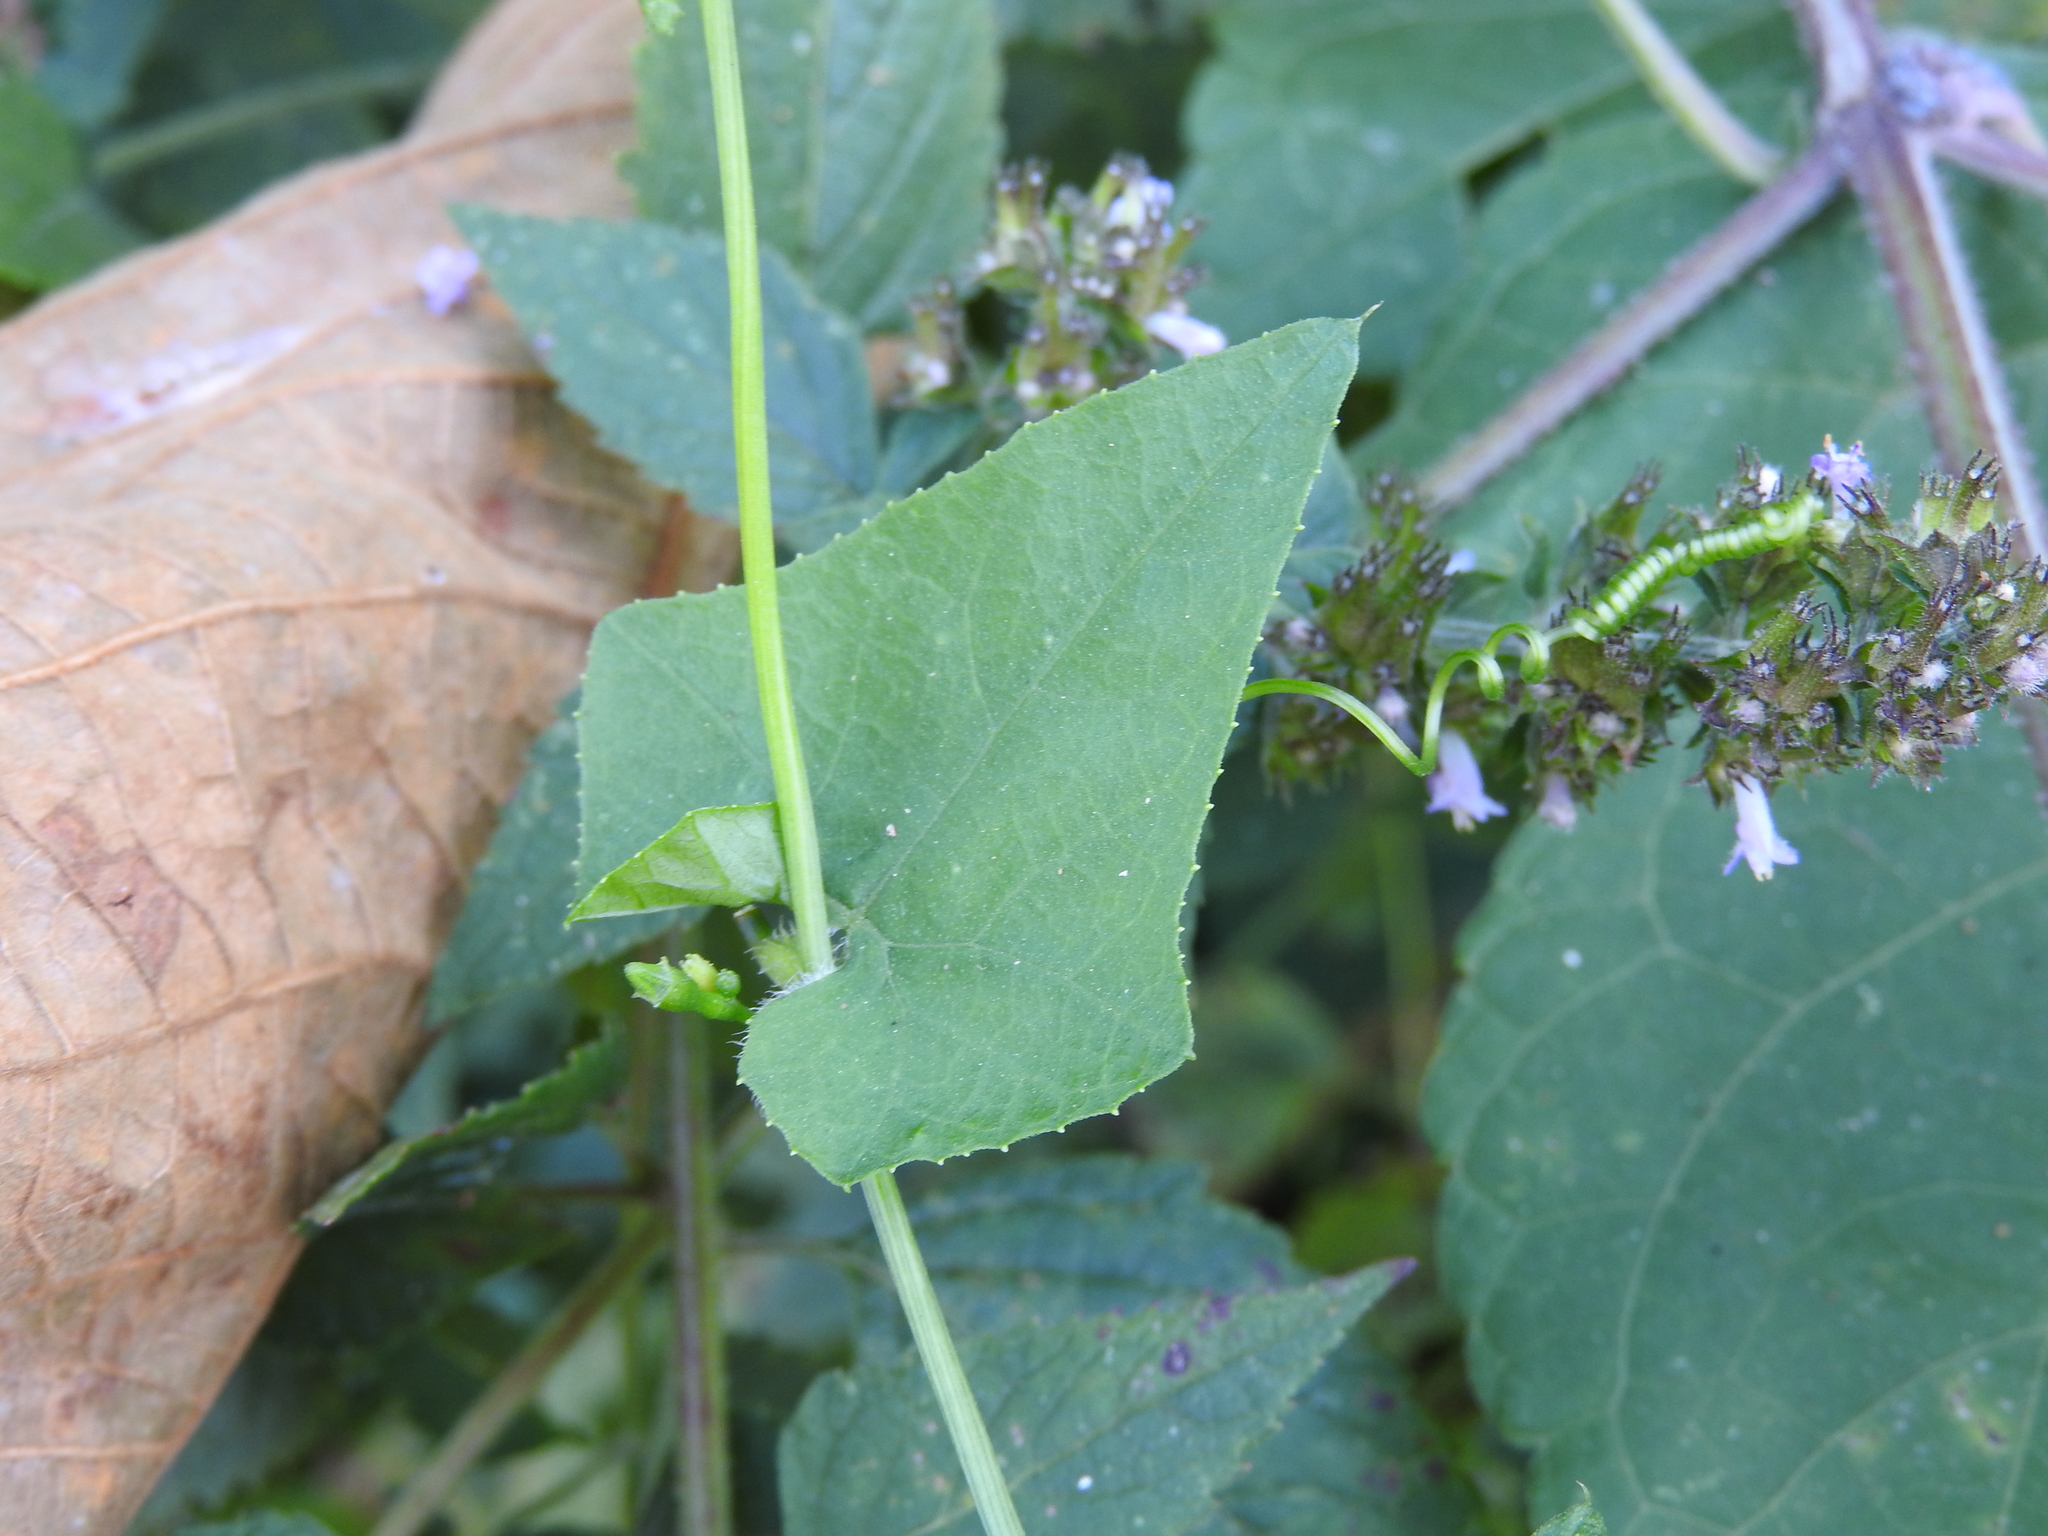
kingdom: Plantae
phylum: Tracheophyta
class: Magnoliopsida
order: Cucurbitales
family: Cucurbitaceae
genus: Cyclanthera
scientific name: Cyclanthera carthagenensis
